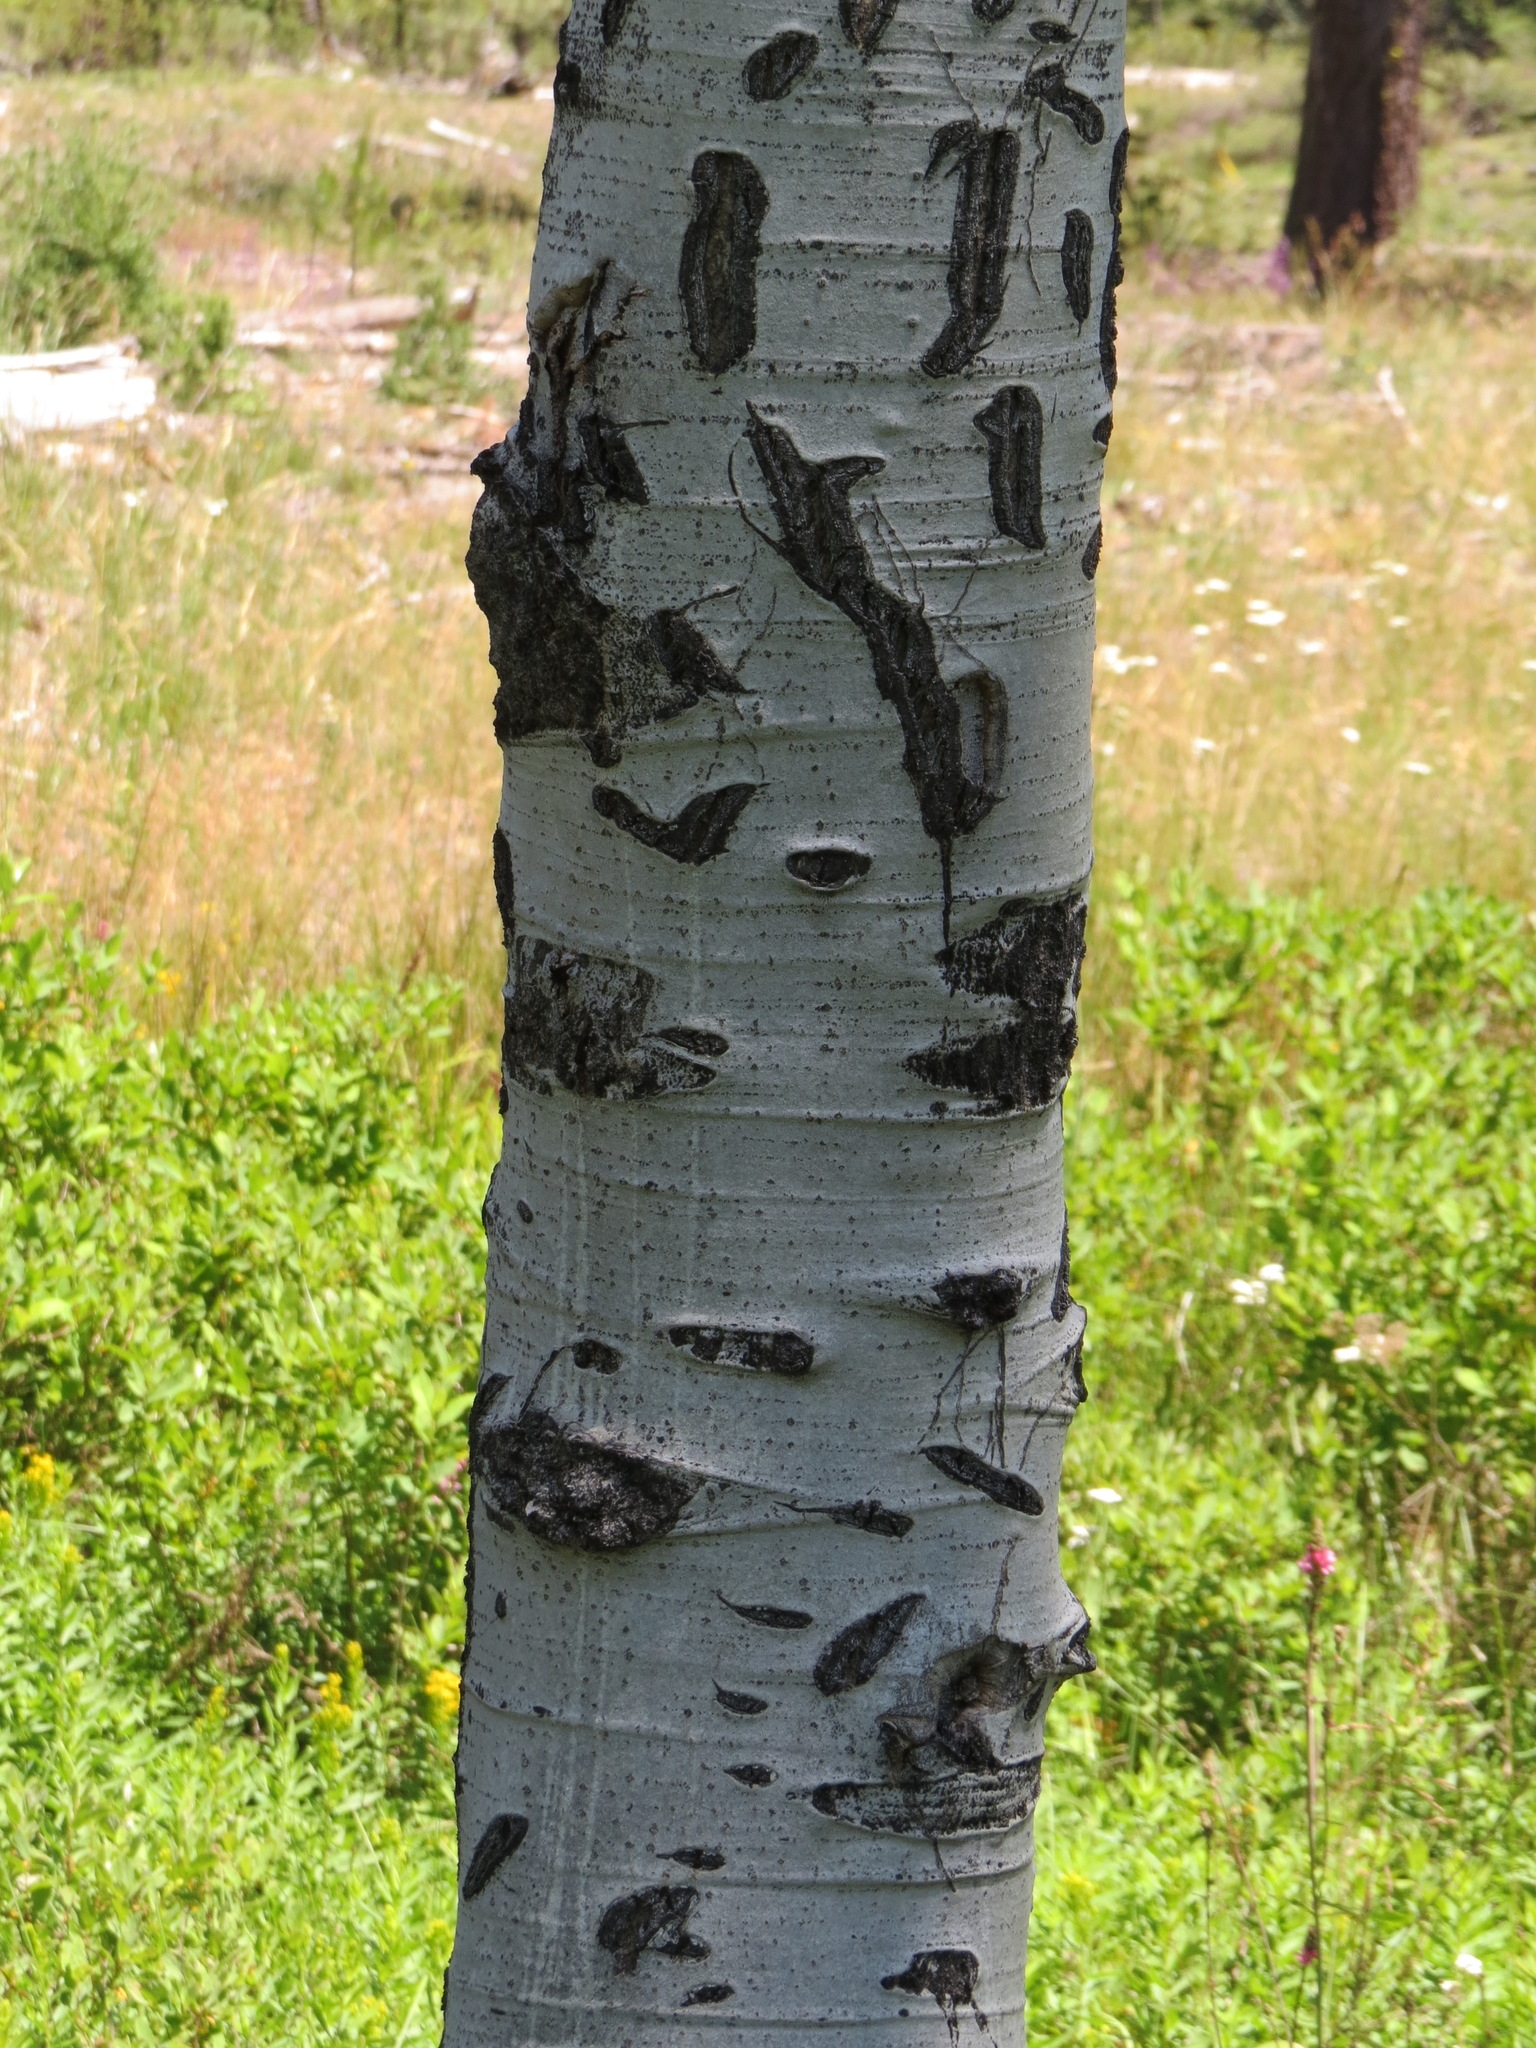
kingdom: Animalia
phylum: Chordata
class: Mammalia
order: Carnivora
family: Ursidae
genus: Ursus
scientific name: Ursus americanus
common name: American black bear
